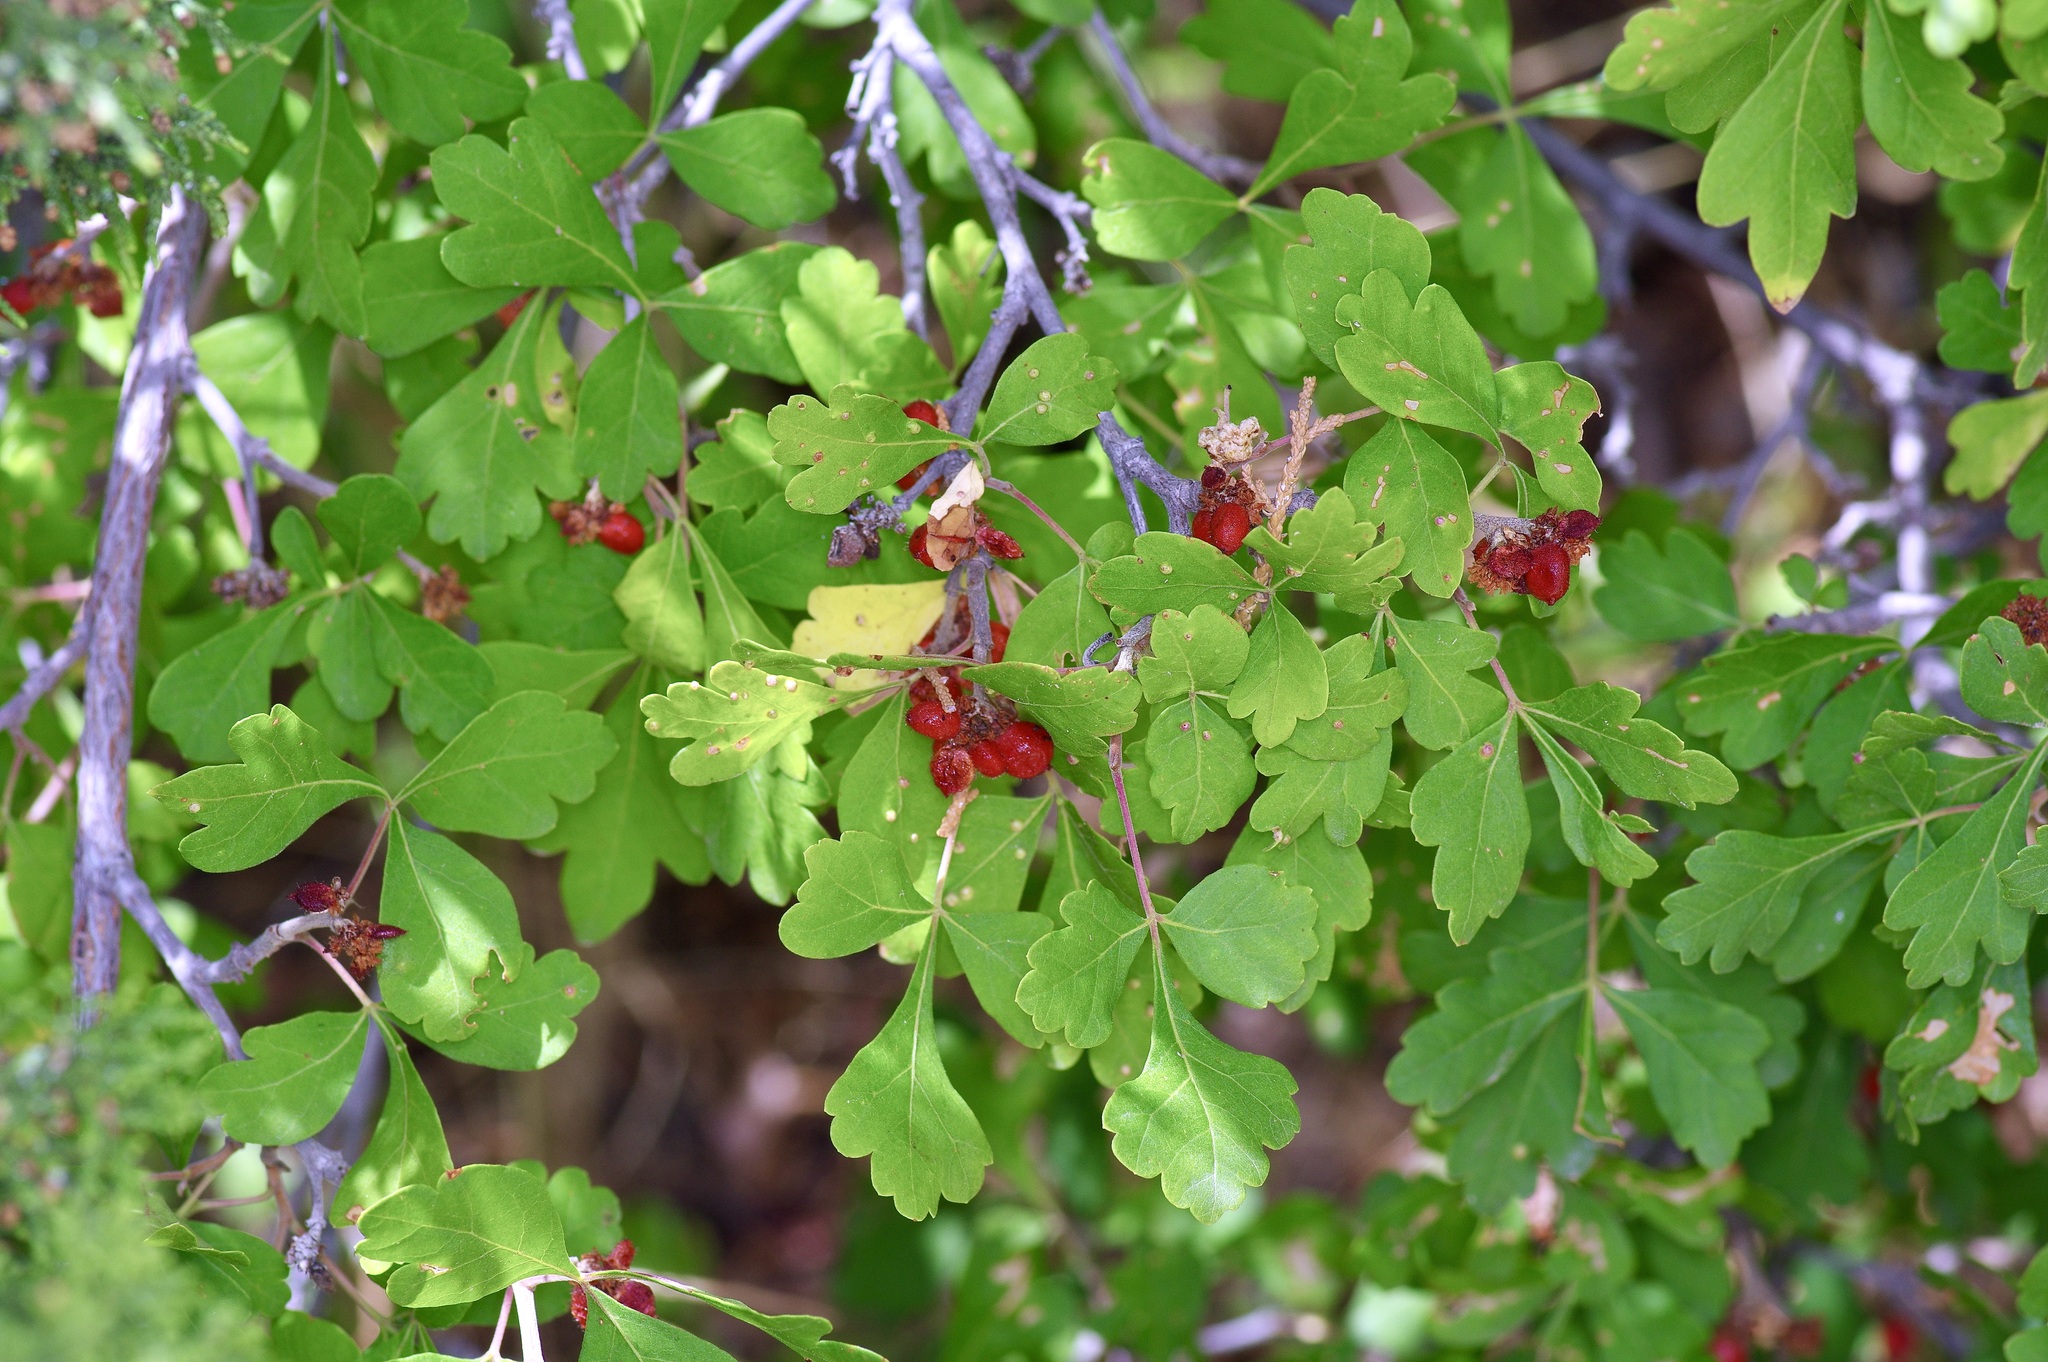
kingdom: Plantae
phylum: Tracheophyta
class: Magnoliopsida
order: Sapindales
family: Anacardiaceae
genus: Rhus
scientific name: Rhus trilobata
